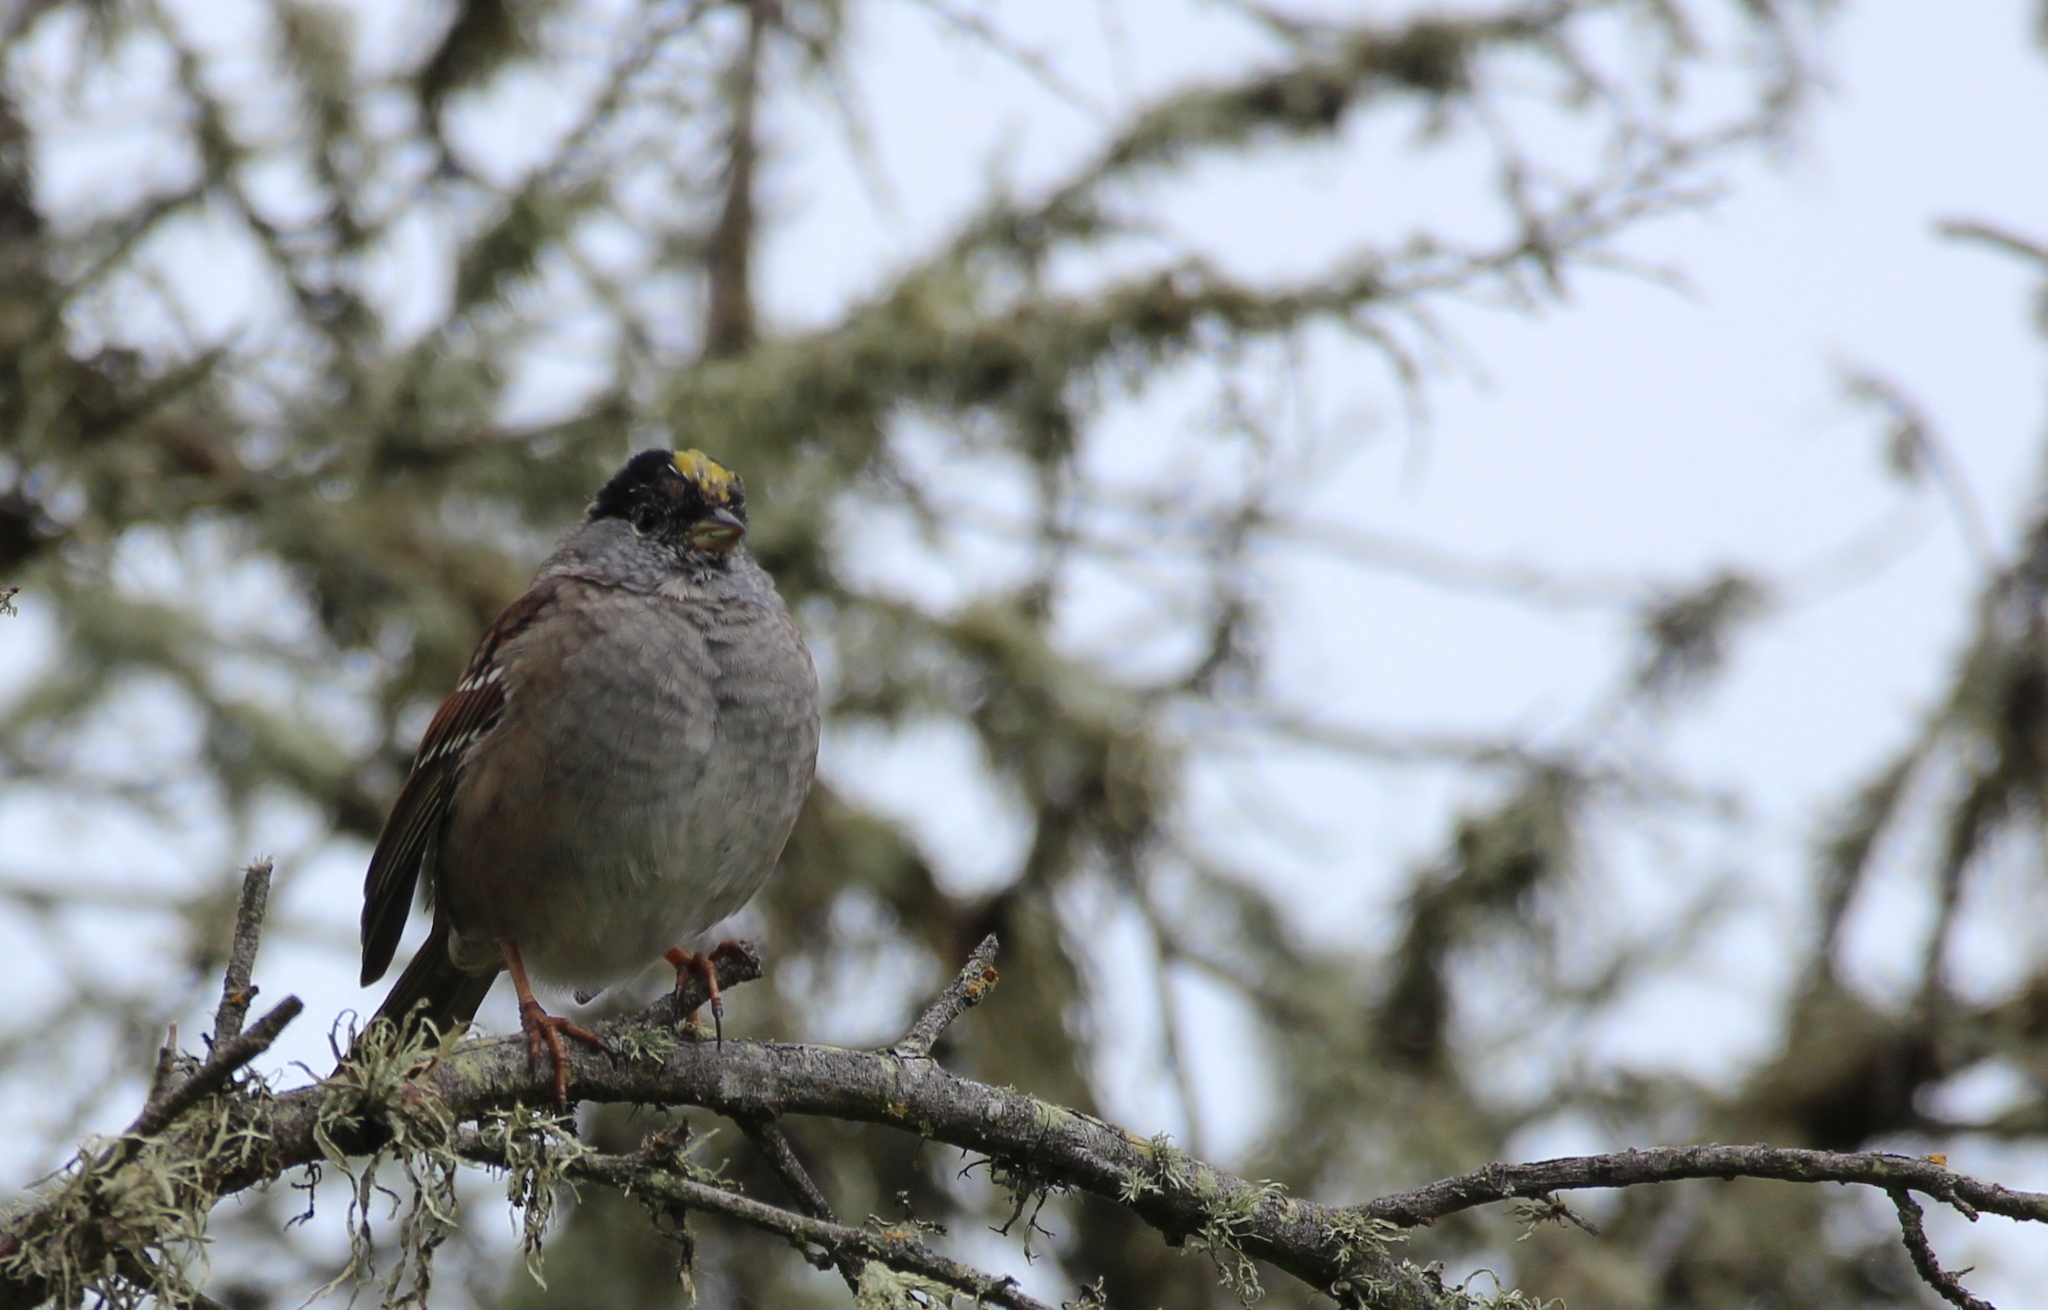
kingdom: Animalia
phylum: Chordata
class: Aves
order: Passeriformes
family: Passerellidae
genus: Zonotrichia
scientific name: Zonotrichia atricapilla
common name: Golden-crowned sparrow
